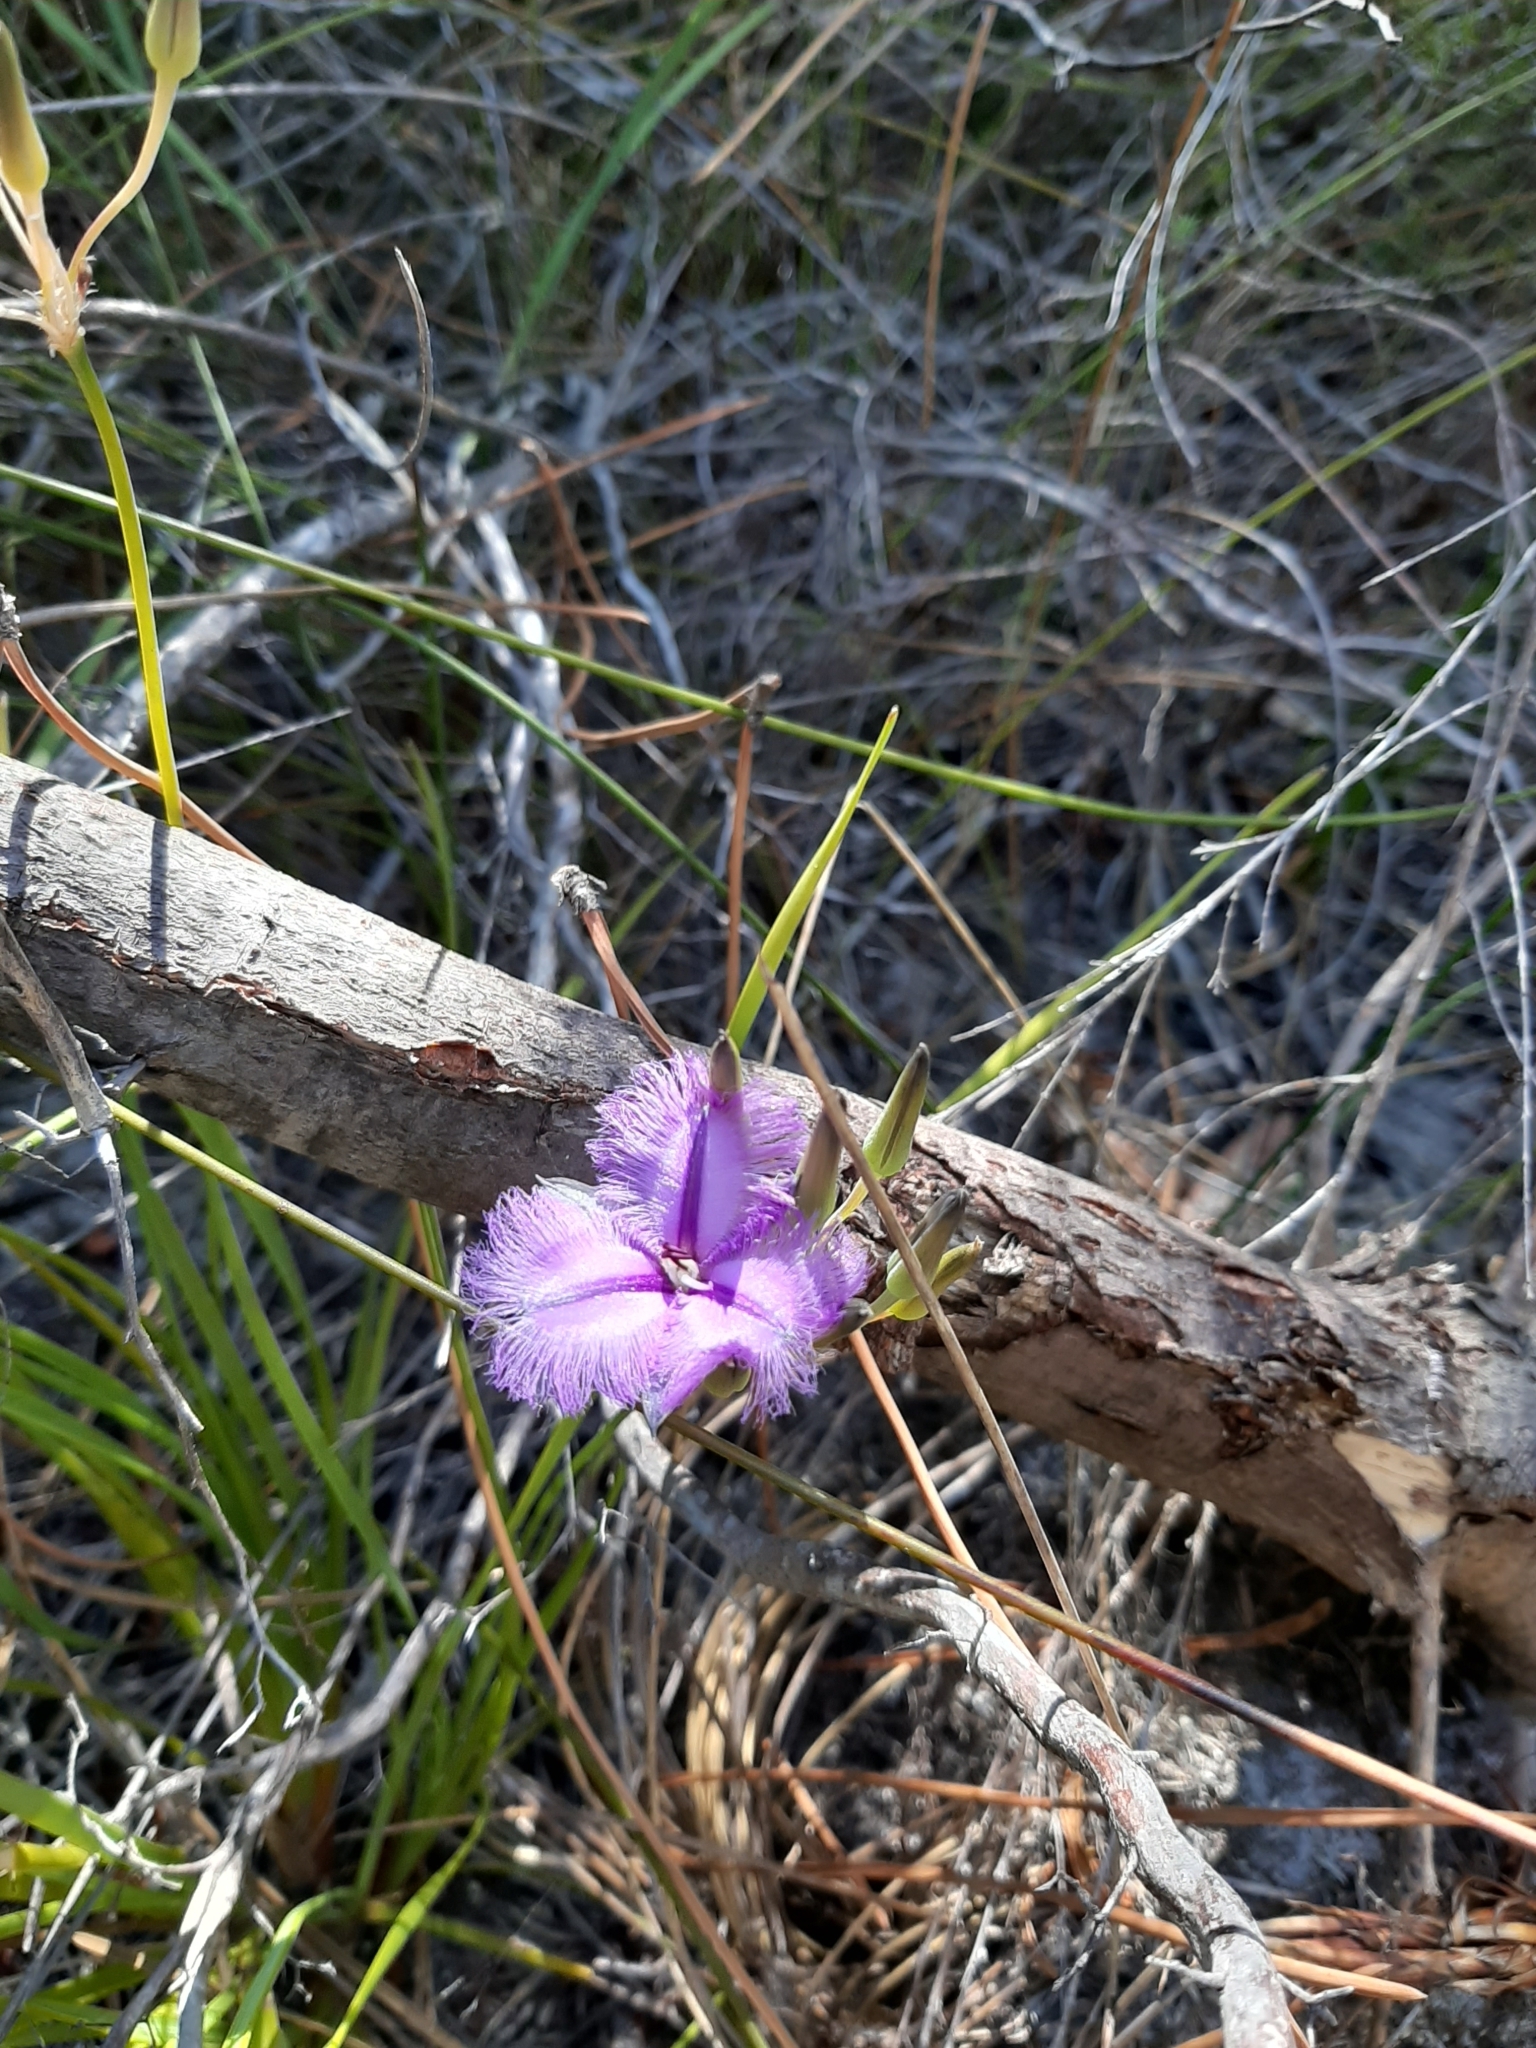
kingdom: Plantae
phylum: Tracheophyta
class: Liliopsida
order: Asparagales
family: Asparagaceae
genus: Thysanotus
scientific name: Thysanotus triandrus
